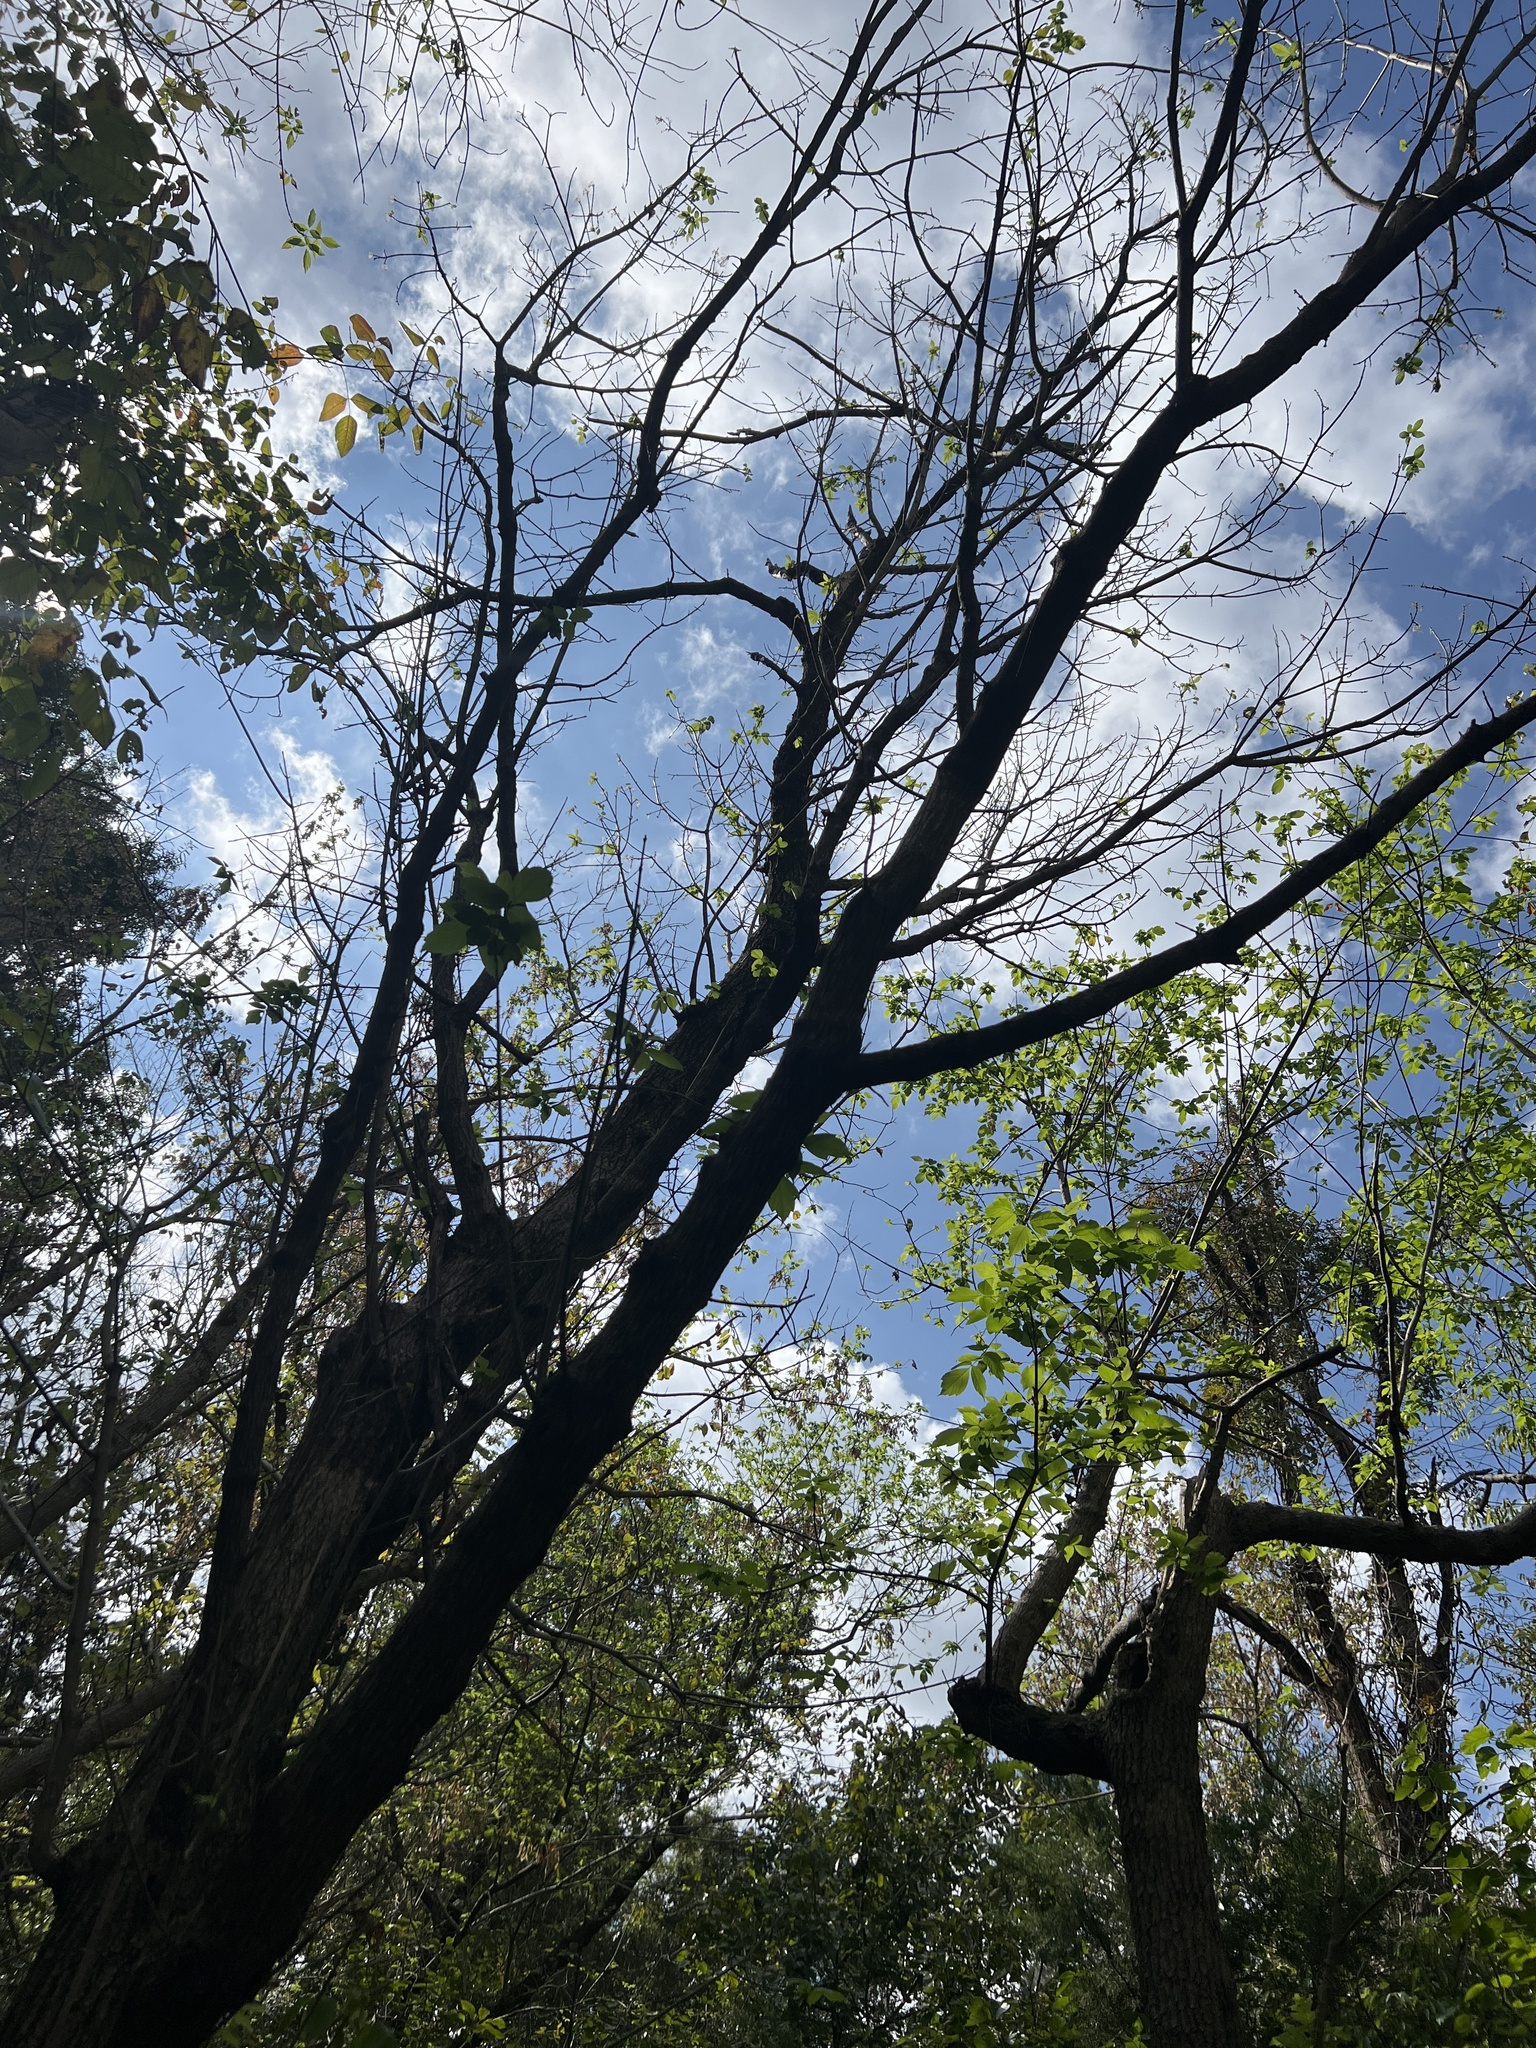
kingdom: Plantae
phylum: Tracheophyta
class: Magnoliopsida
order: Sapindales
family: Sapindaceae
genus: Acer
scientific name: Acer negundo
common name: Ashleaf maple
